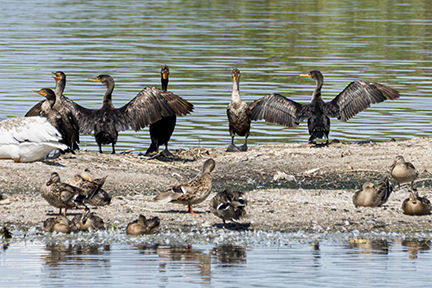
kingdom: Animalia
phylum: Chordata
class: Aves
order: Suliformes
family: Phalacrocoracidae
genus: Phalacrocorax
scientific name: Phalacrocorax auritus
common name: Double-crested cormorant
